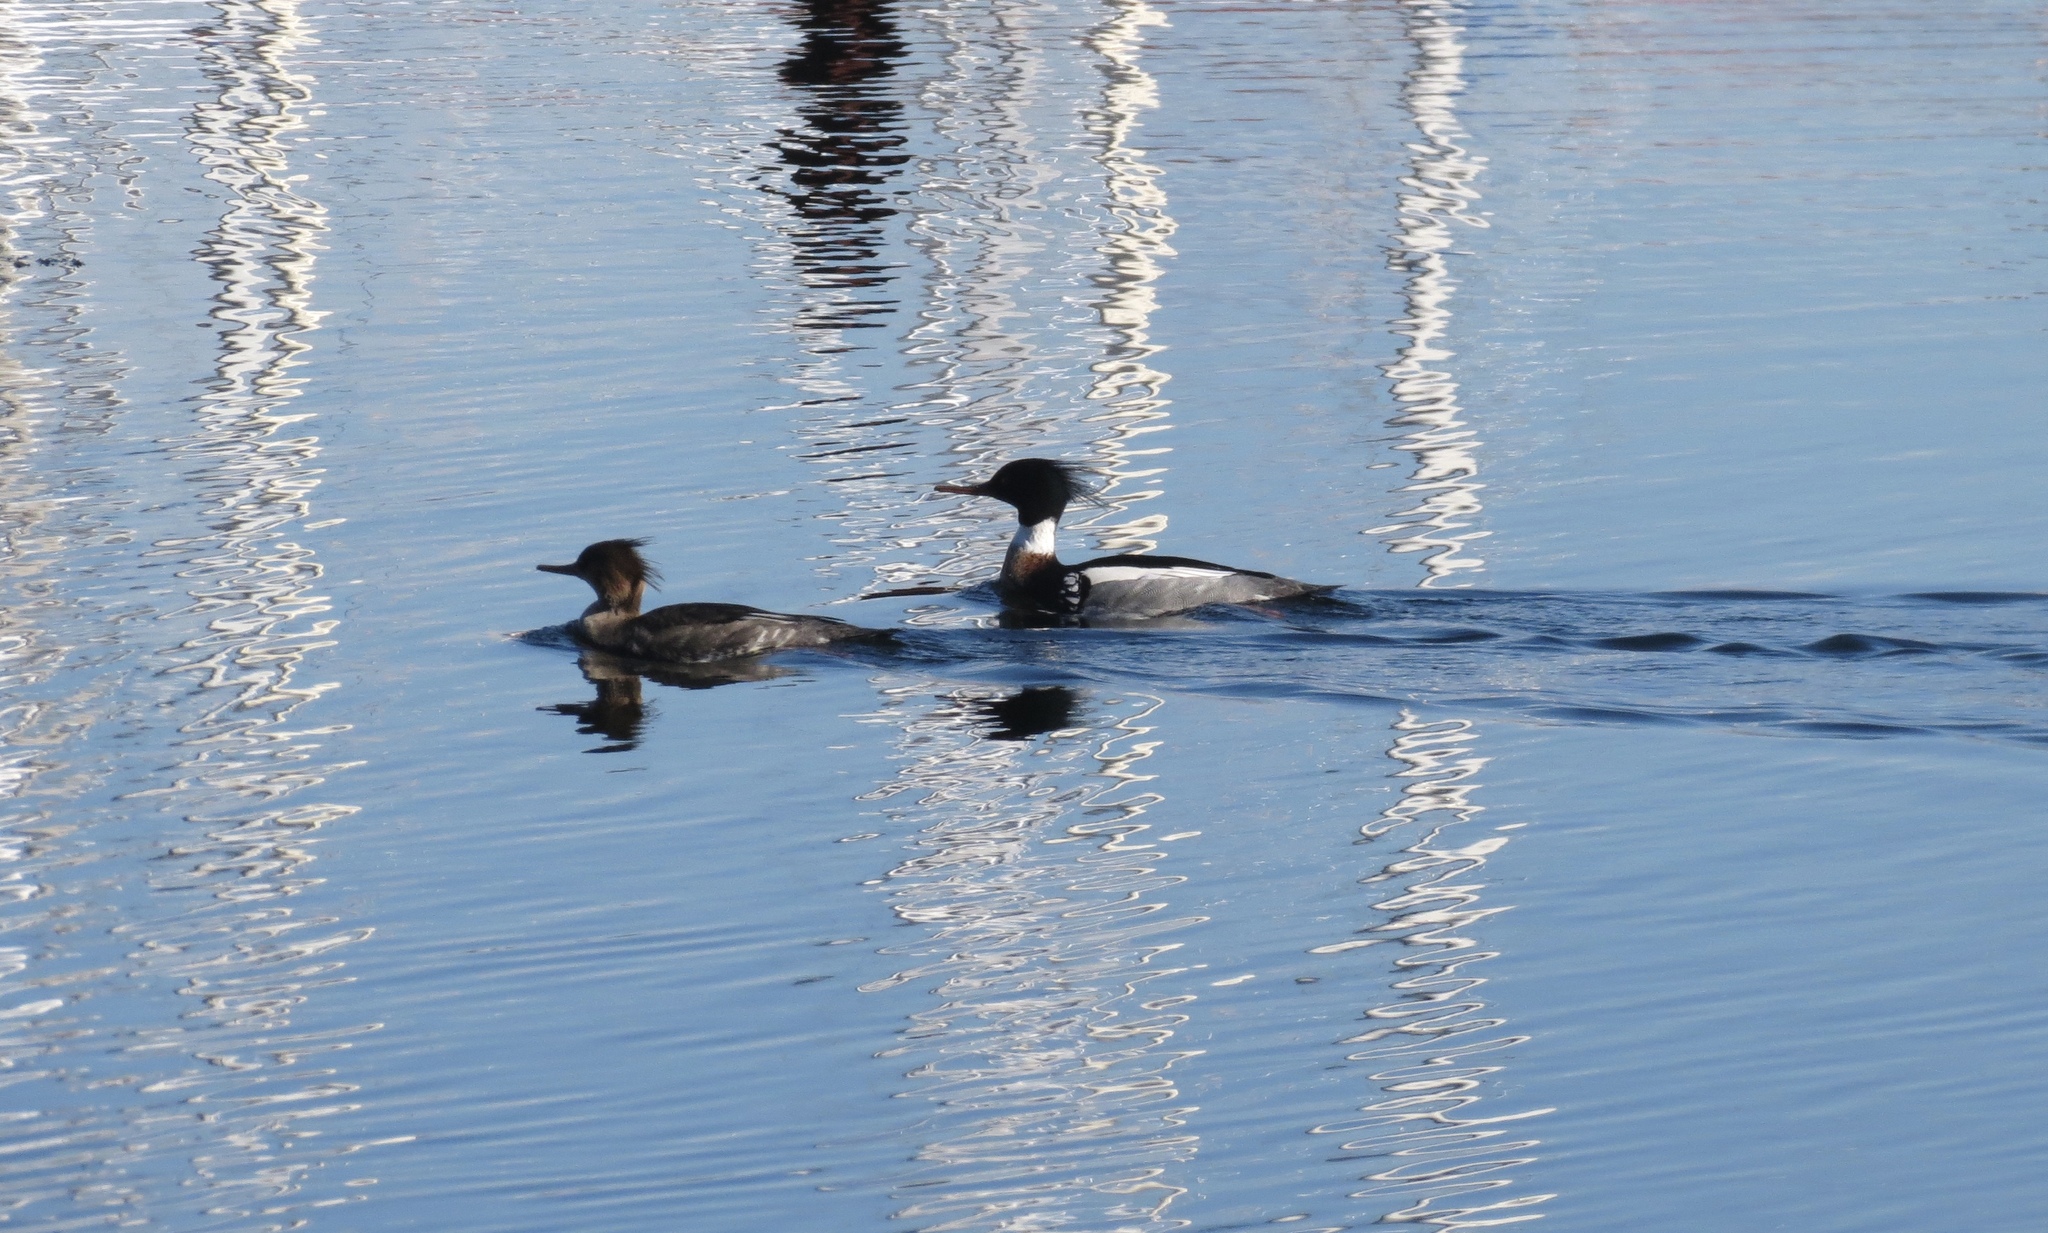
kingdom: Animalia
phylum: Chordata
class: Aves
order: Anseriformes
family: Anatidae
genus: Mergus
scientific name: Mergus serrator
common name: Red-breasted merganser
